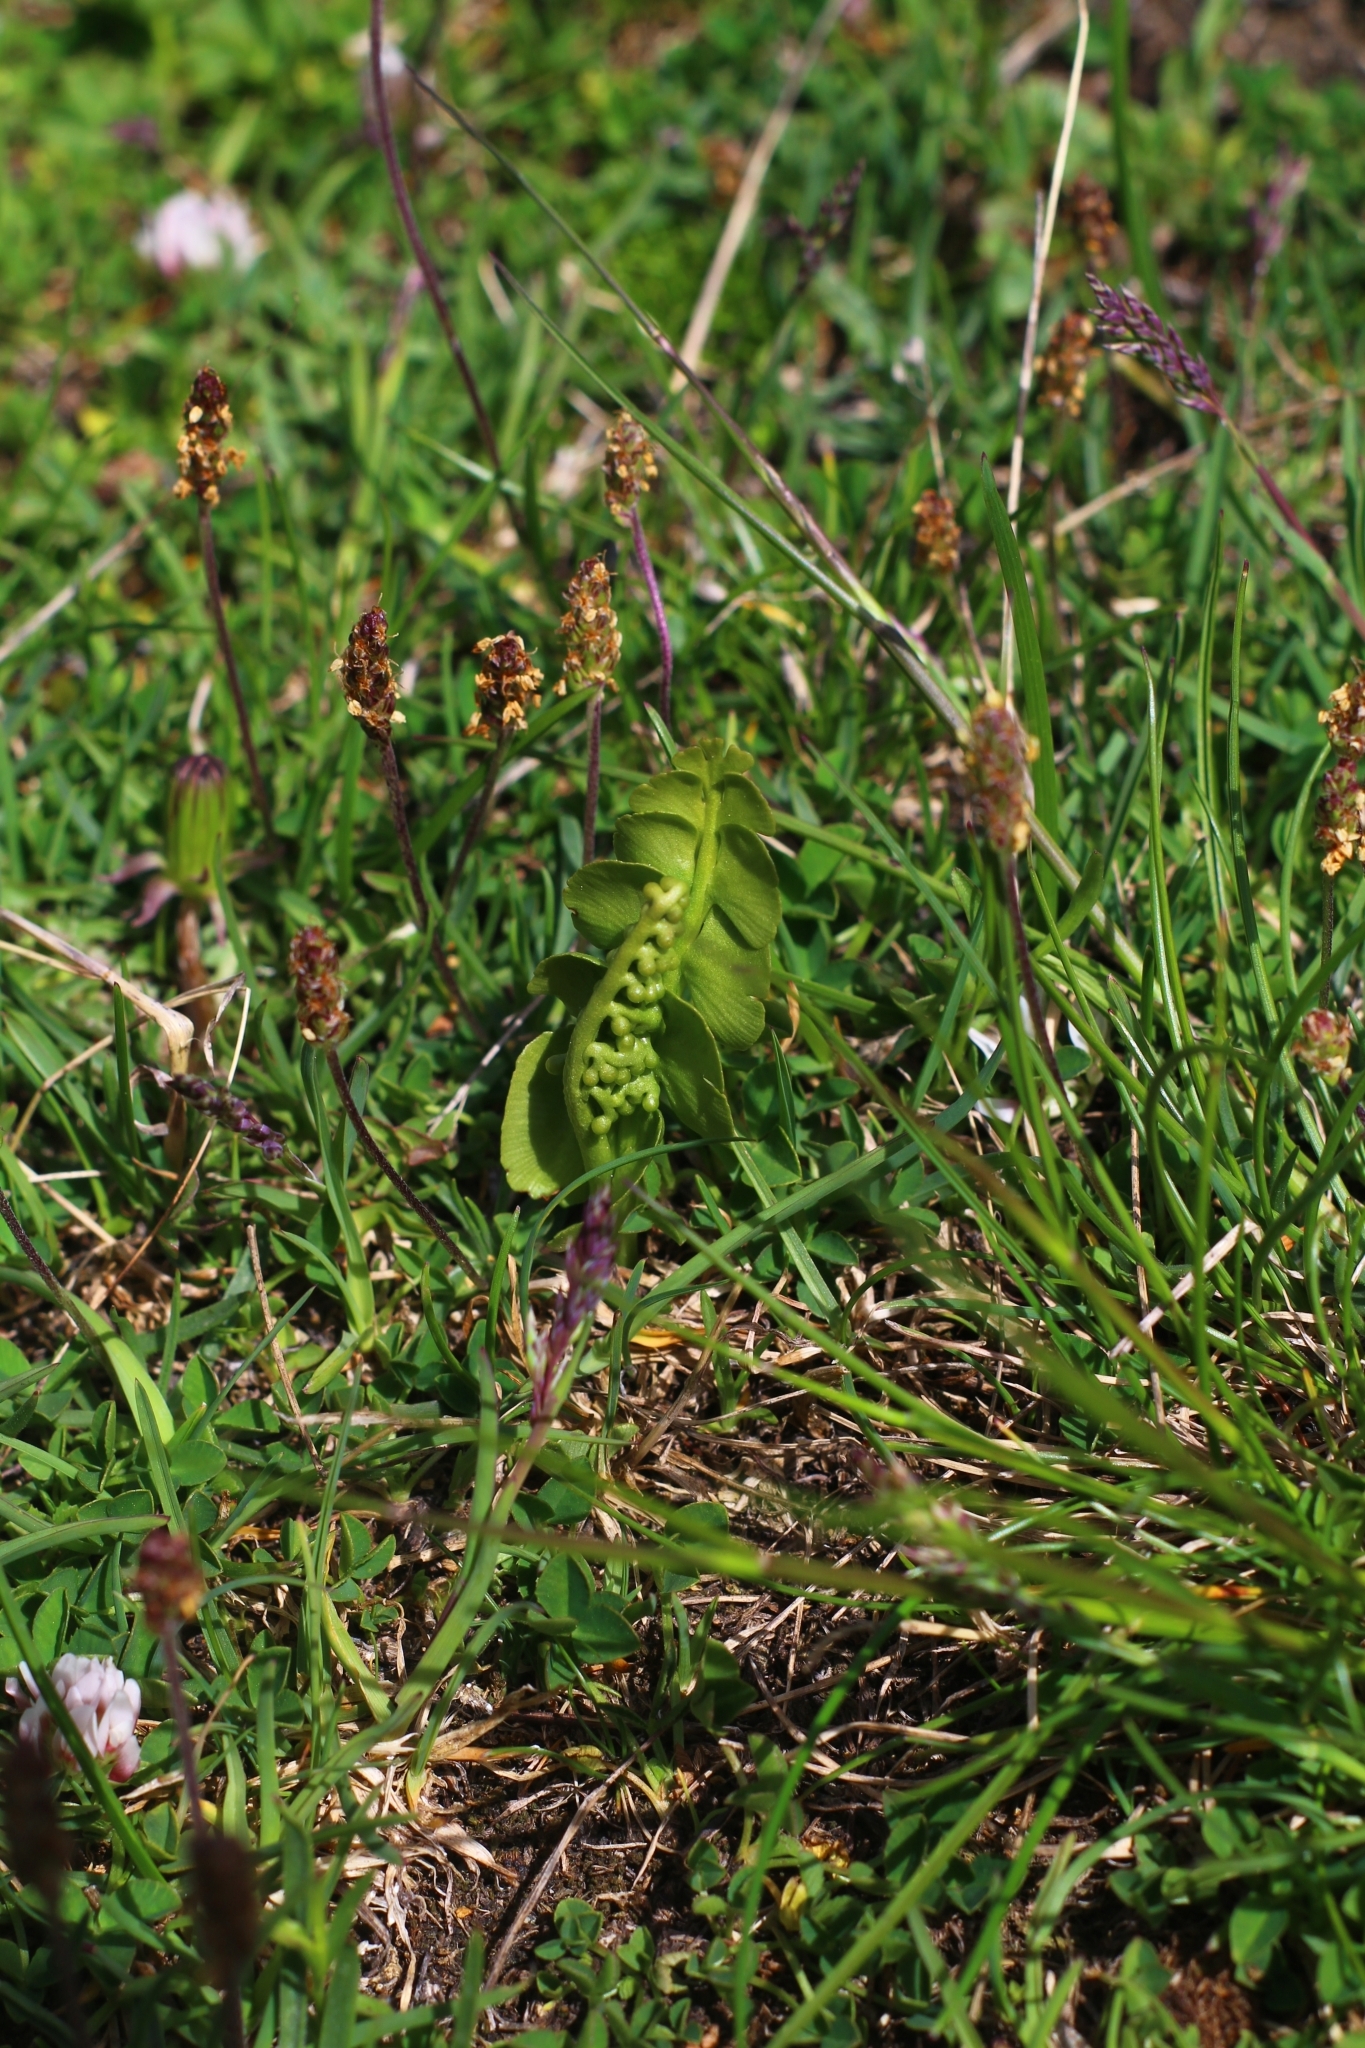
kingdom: Plantae
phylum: Tracheophyta
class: Polypodiopsida
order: Ophioglossales
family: Ophioglossaceae
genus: Botrychium
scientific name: Botrychium lunaria
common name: Moonwort
